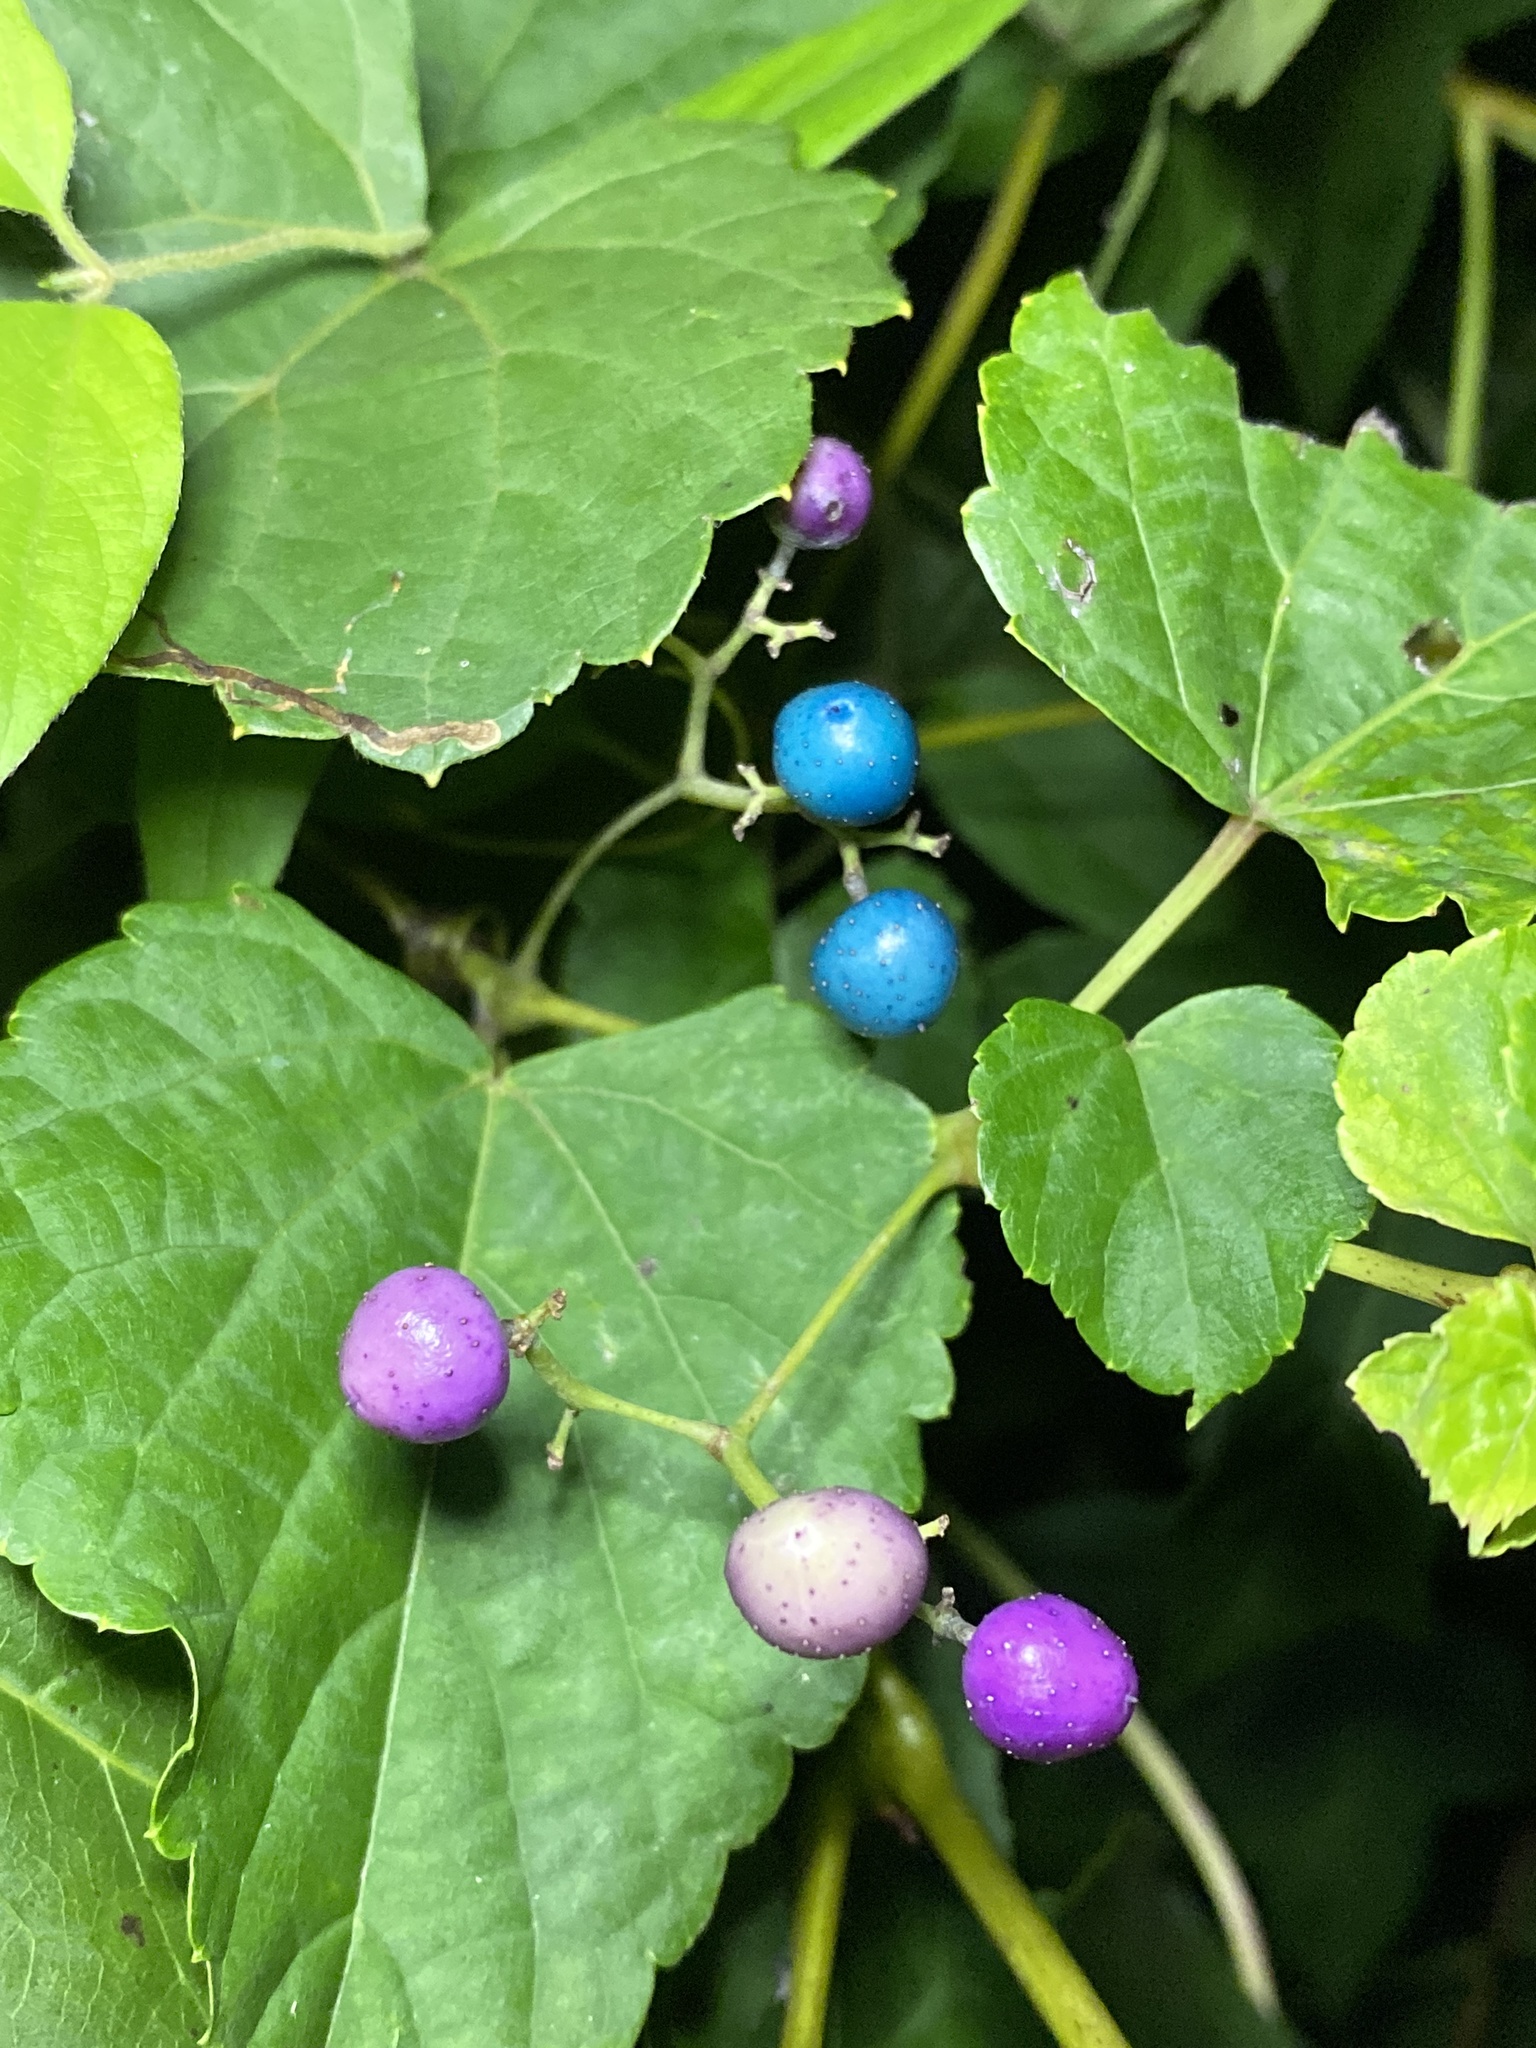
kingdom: Plantae
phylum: Tracheophyta
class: Magnoliopsida
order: Vitales
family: Vitaceae
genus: Ampelopsis
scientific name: Ampelopsis glandulosa
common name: Amur peppervine
